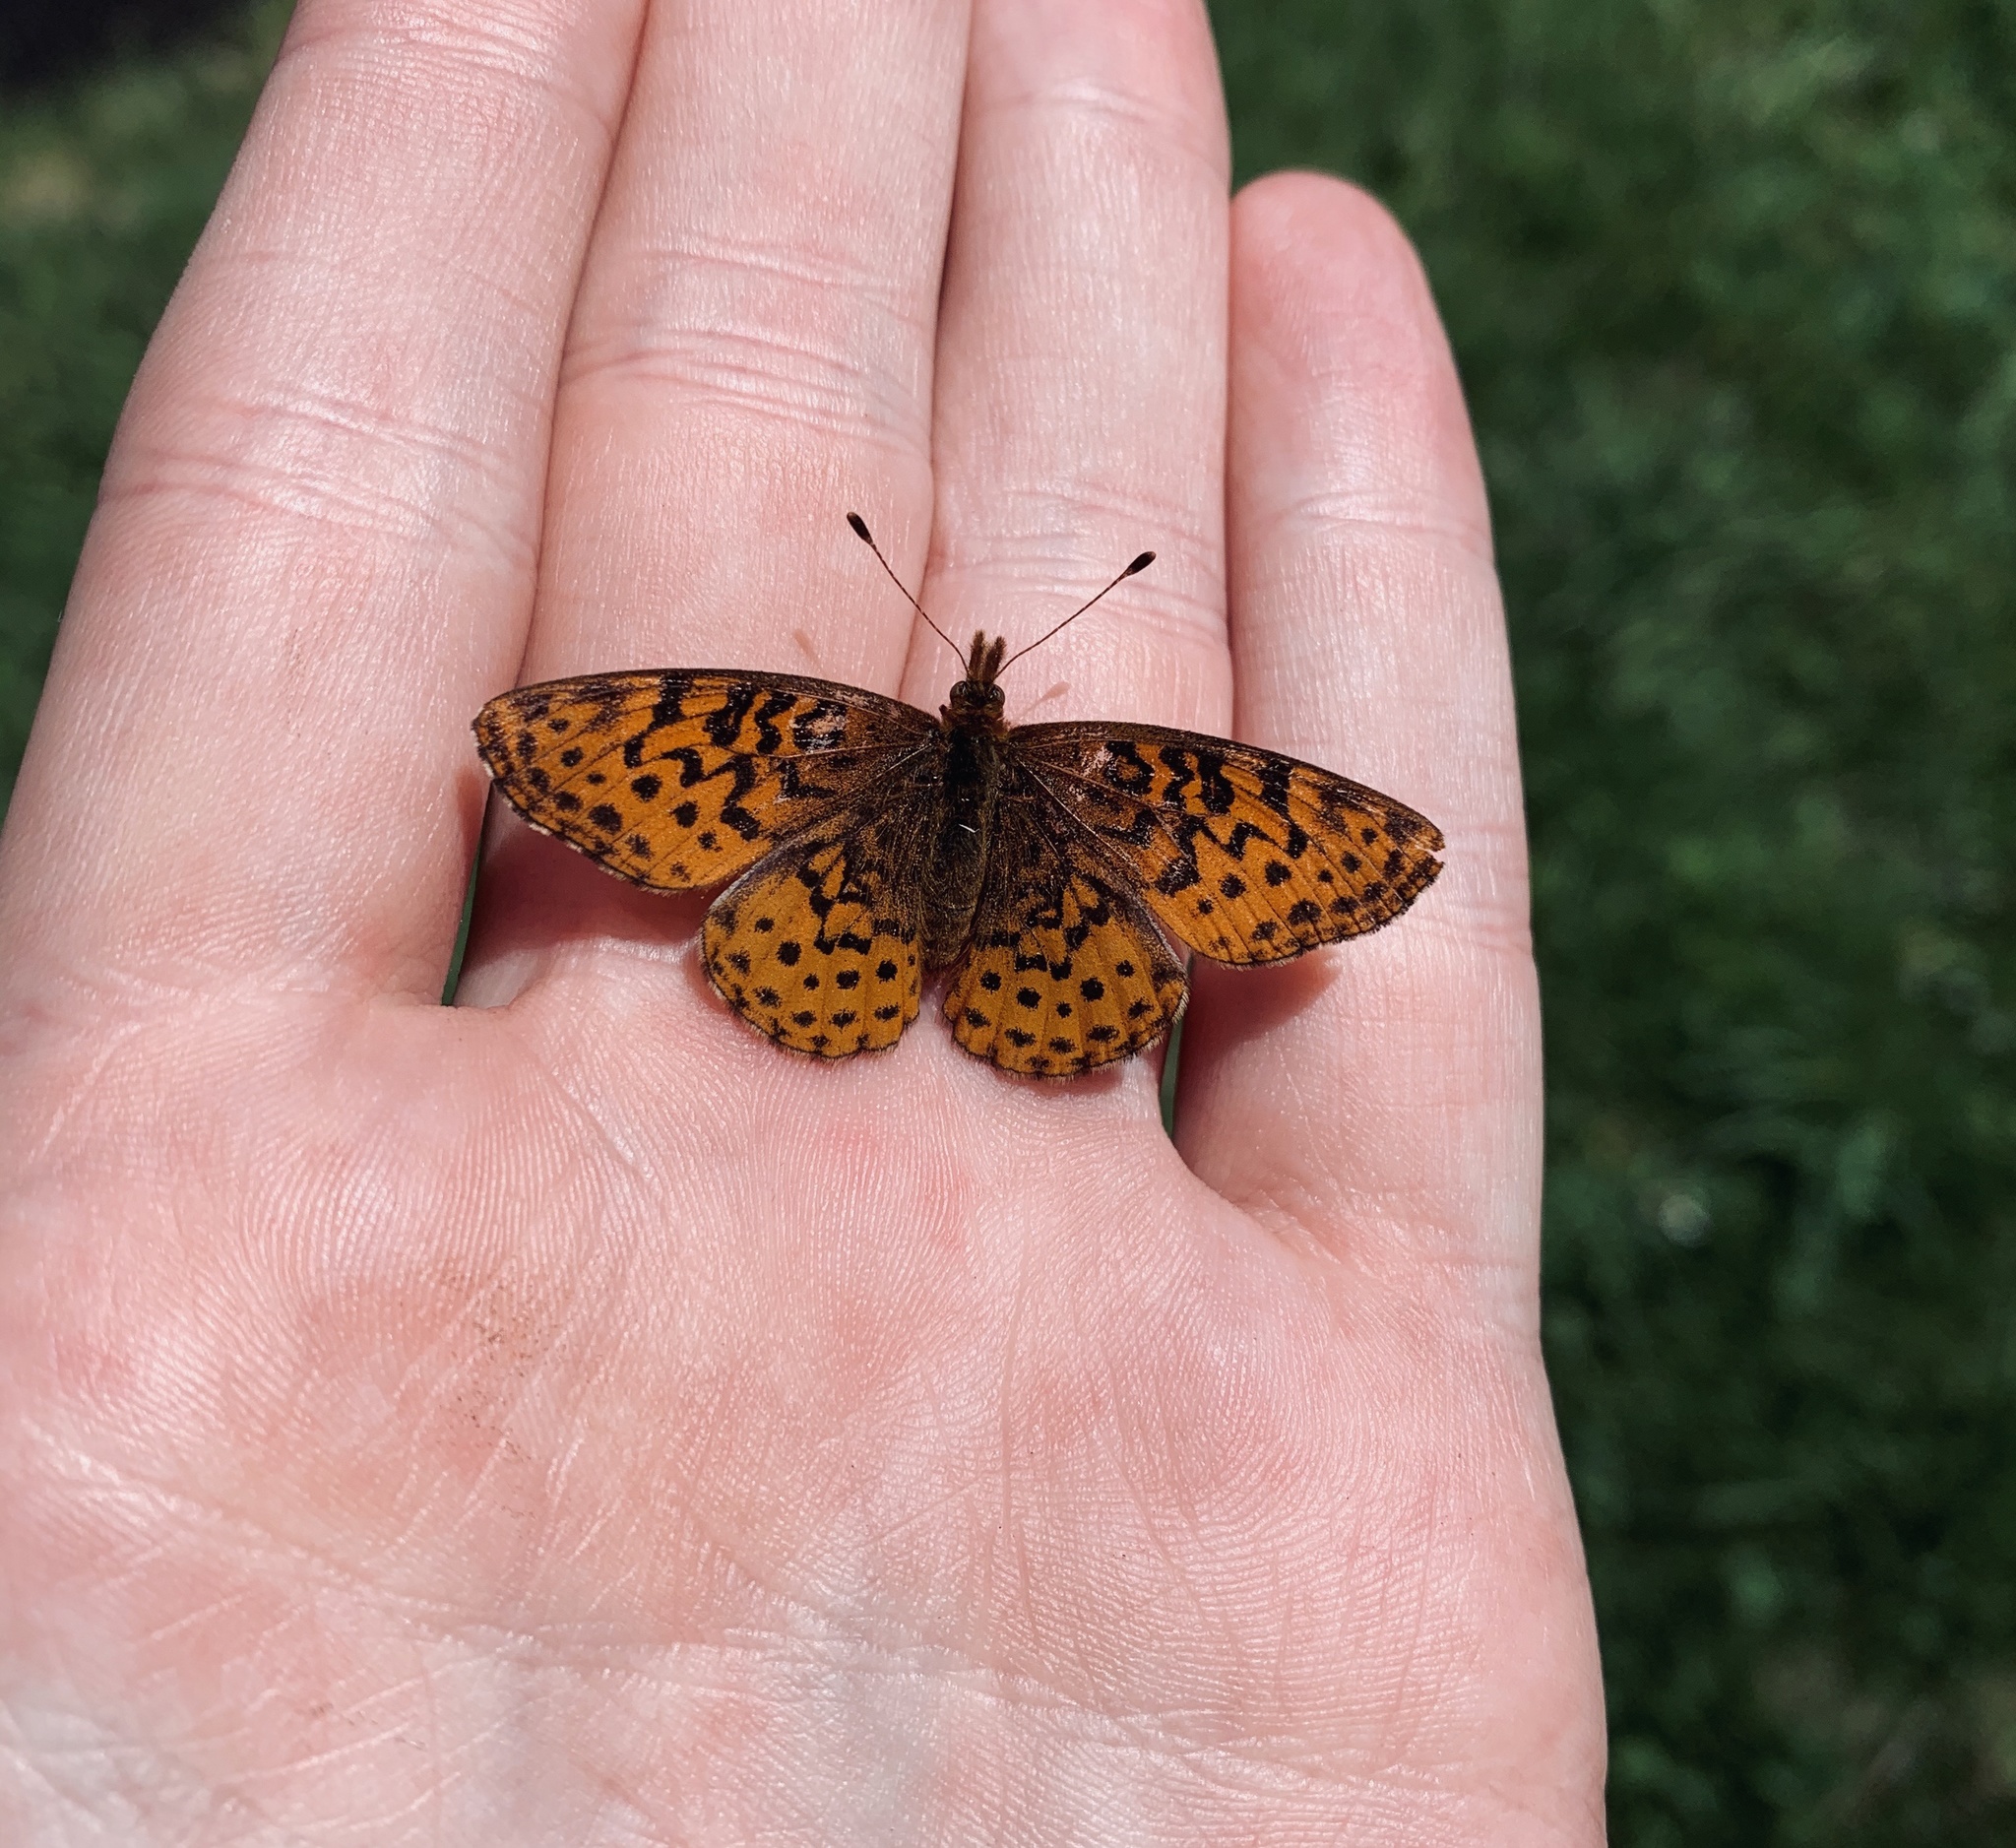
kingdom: Animalia
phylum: Arthropoda
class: Insecta
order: Lepidoptera
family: Nymphalidae
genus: Clossiana
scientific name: Clossiana toddi
